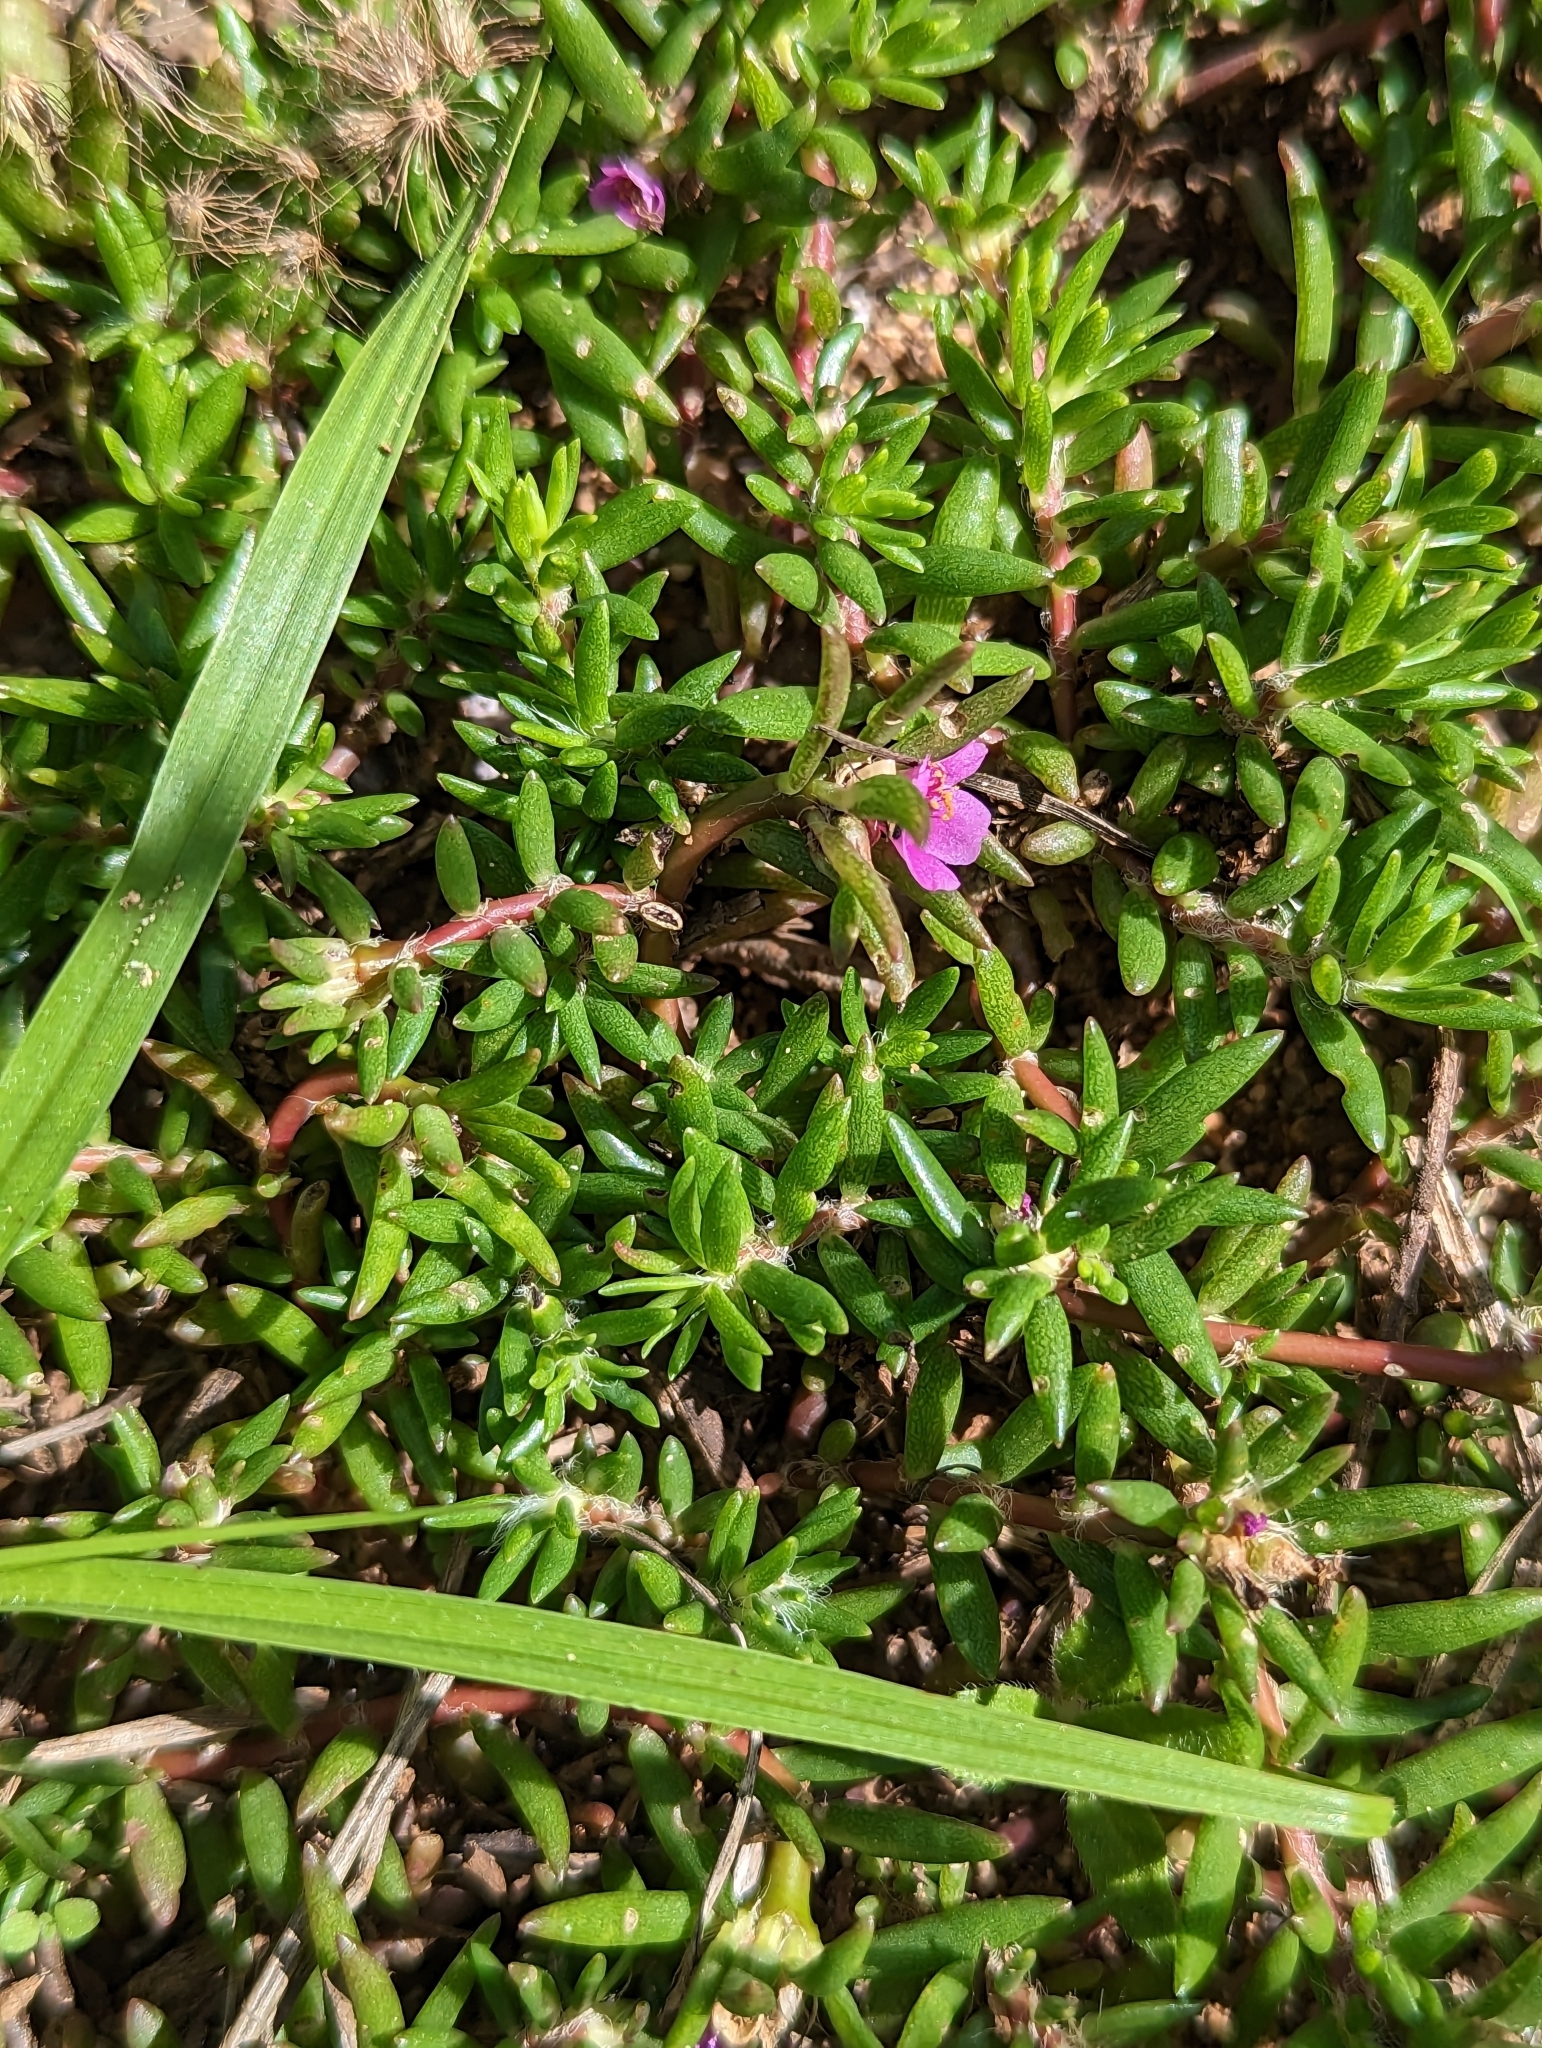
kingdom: Plantae
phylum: Tracheophyta
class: Magnoliopsida
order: Caryophyllales
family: Portulacaceae
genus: Portulaca
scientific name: Portulaca pilosa
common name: Kiss me quick
